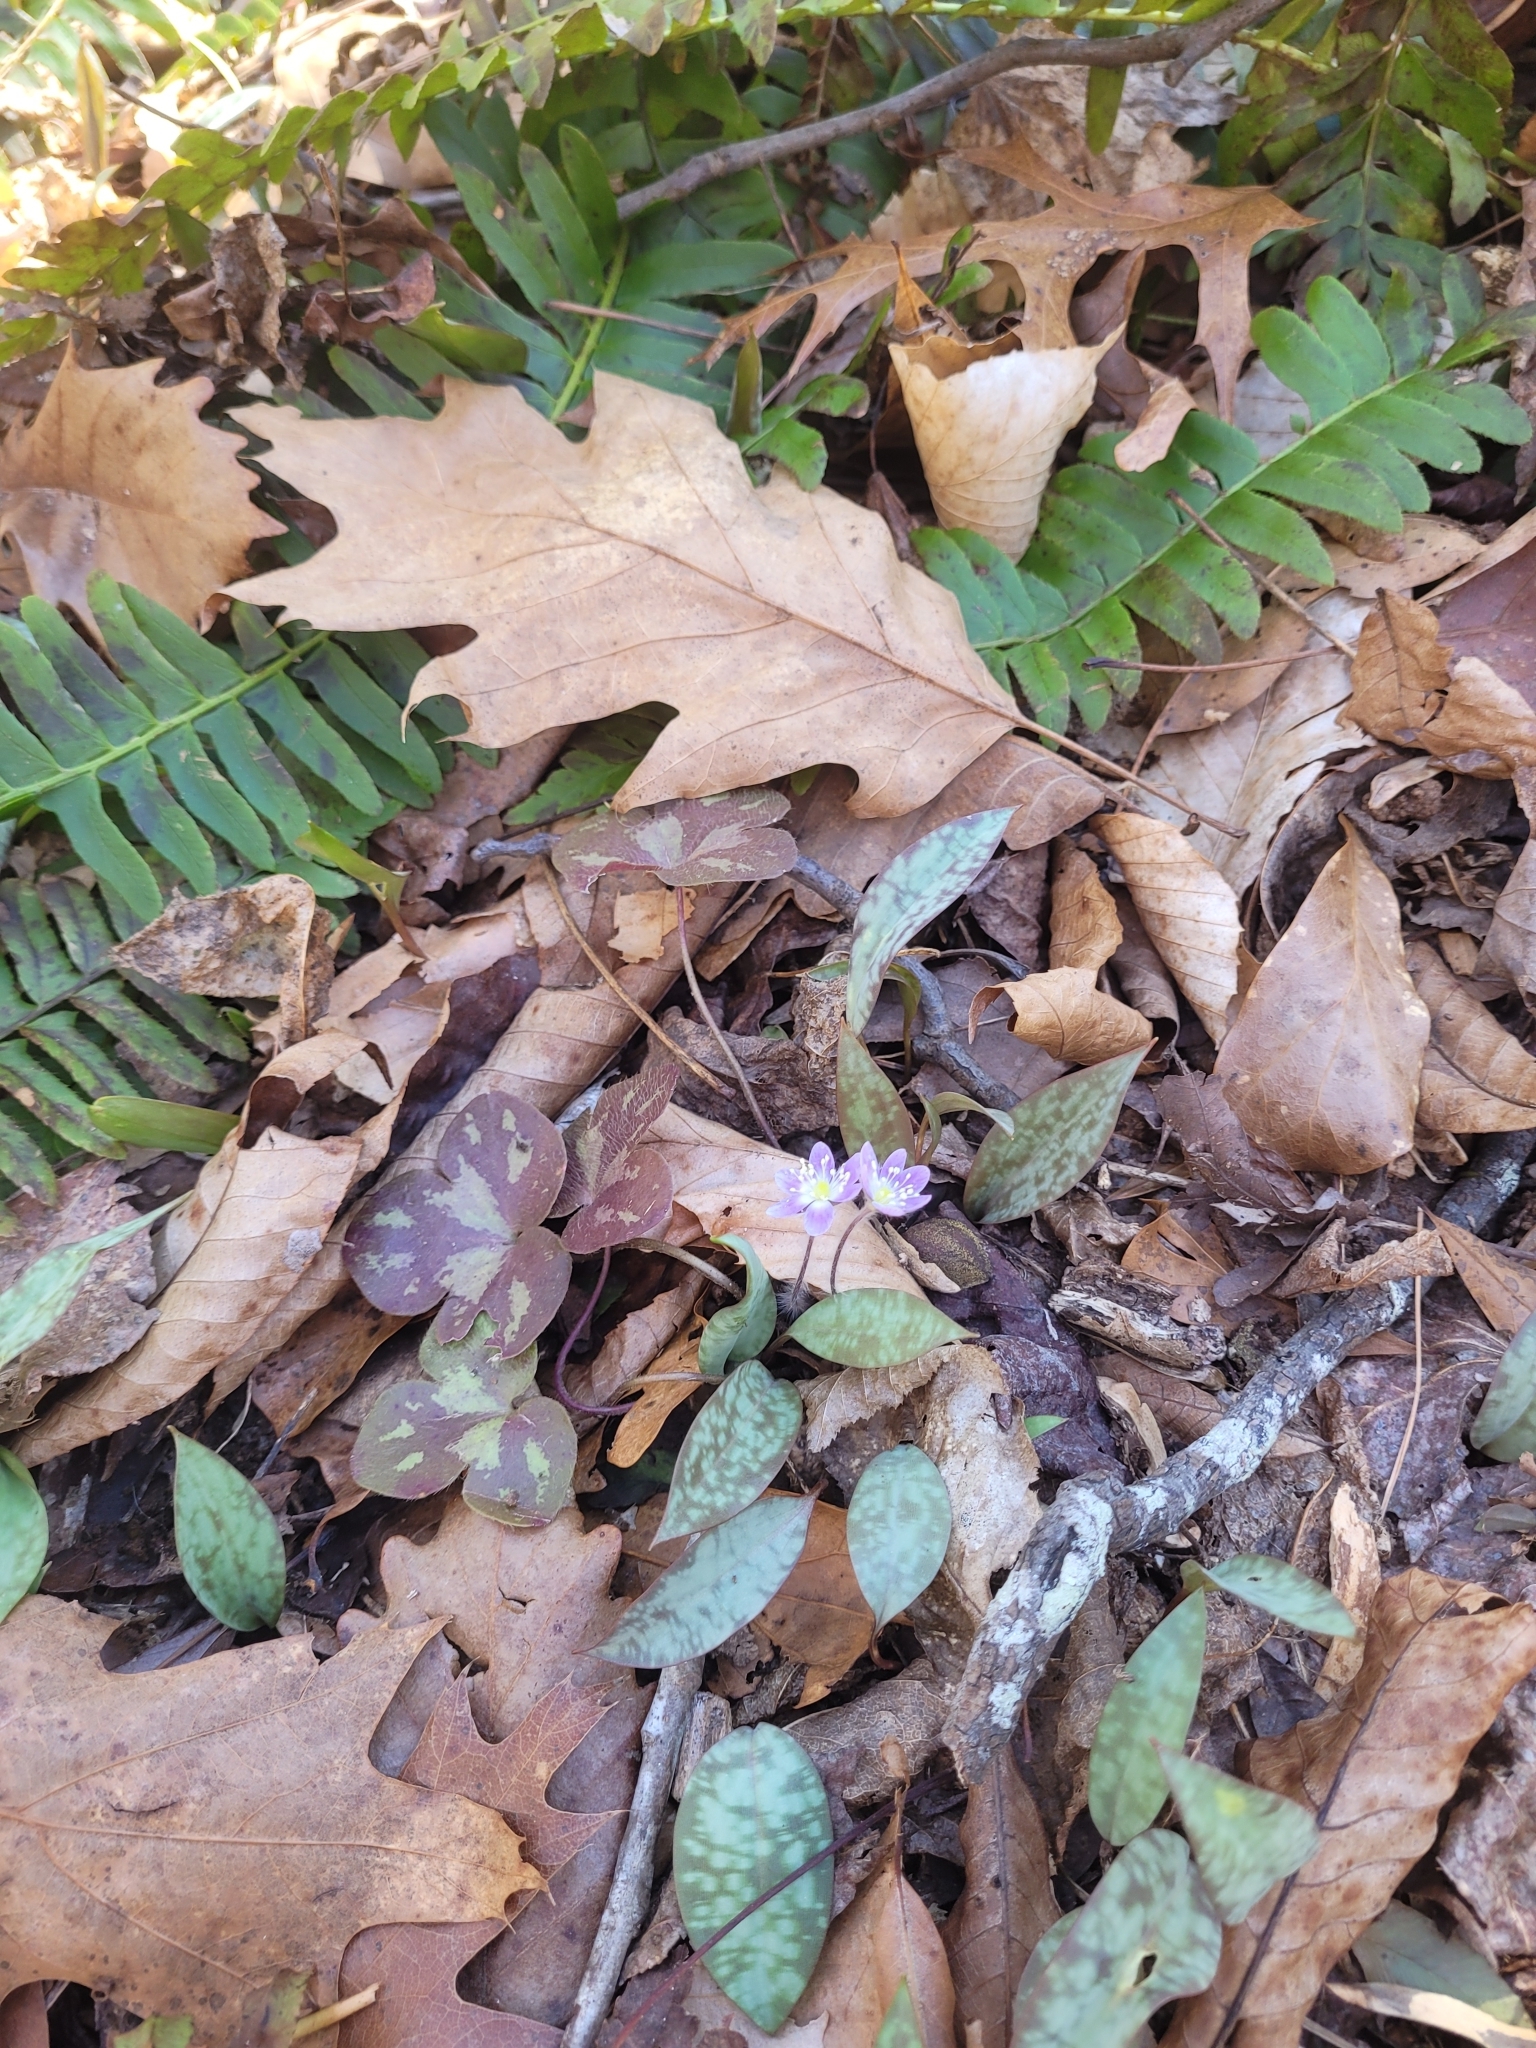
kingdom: Plantae
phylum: Tracheophyta
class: Magnoliopsida
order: Ranunculales
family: Ranunculaceae
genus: Hepatica
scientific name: Hepatica americana
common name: American hepatica
